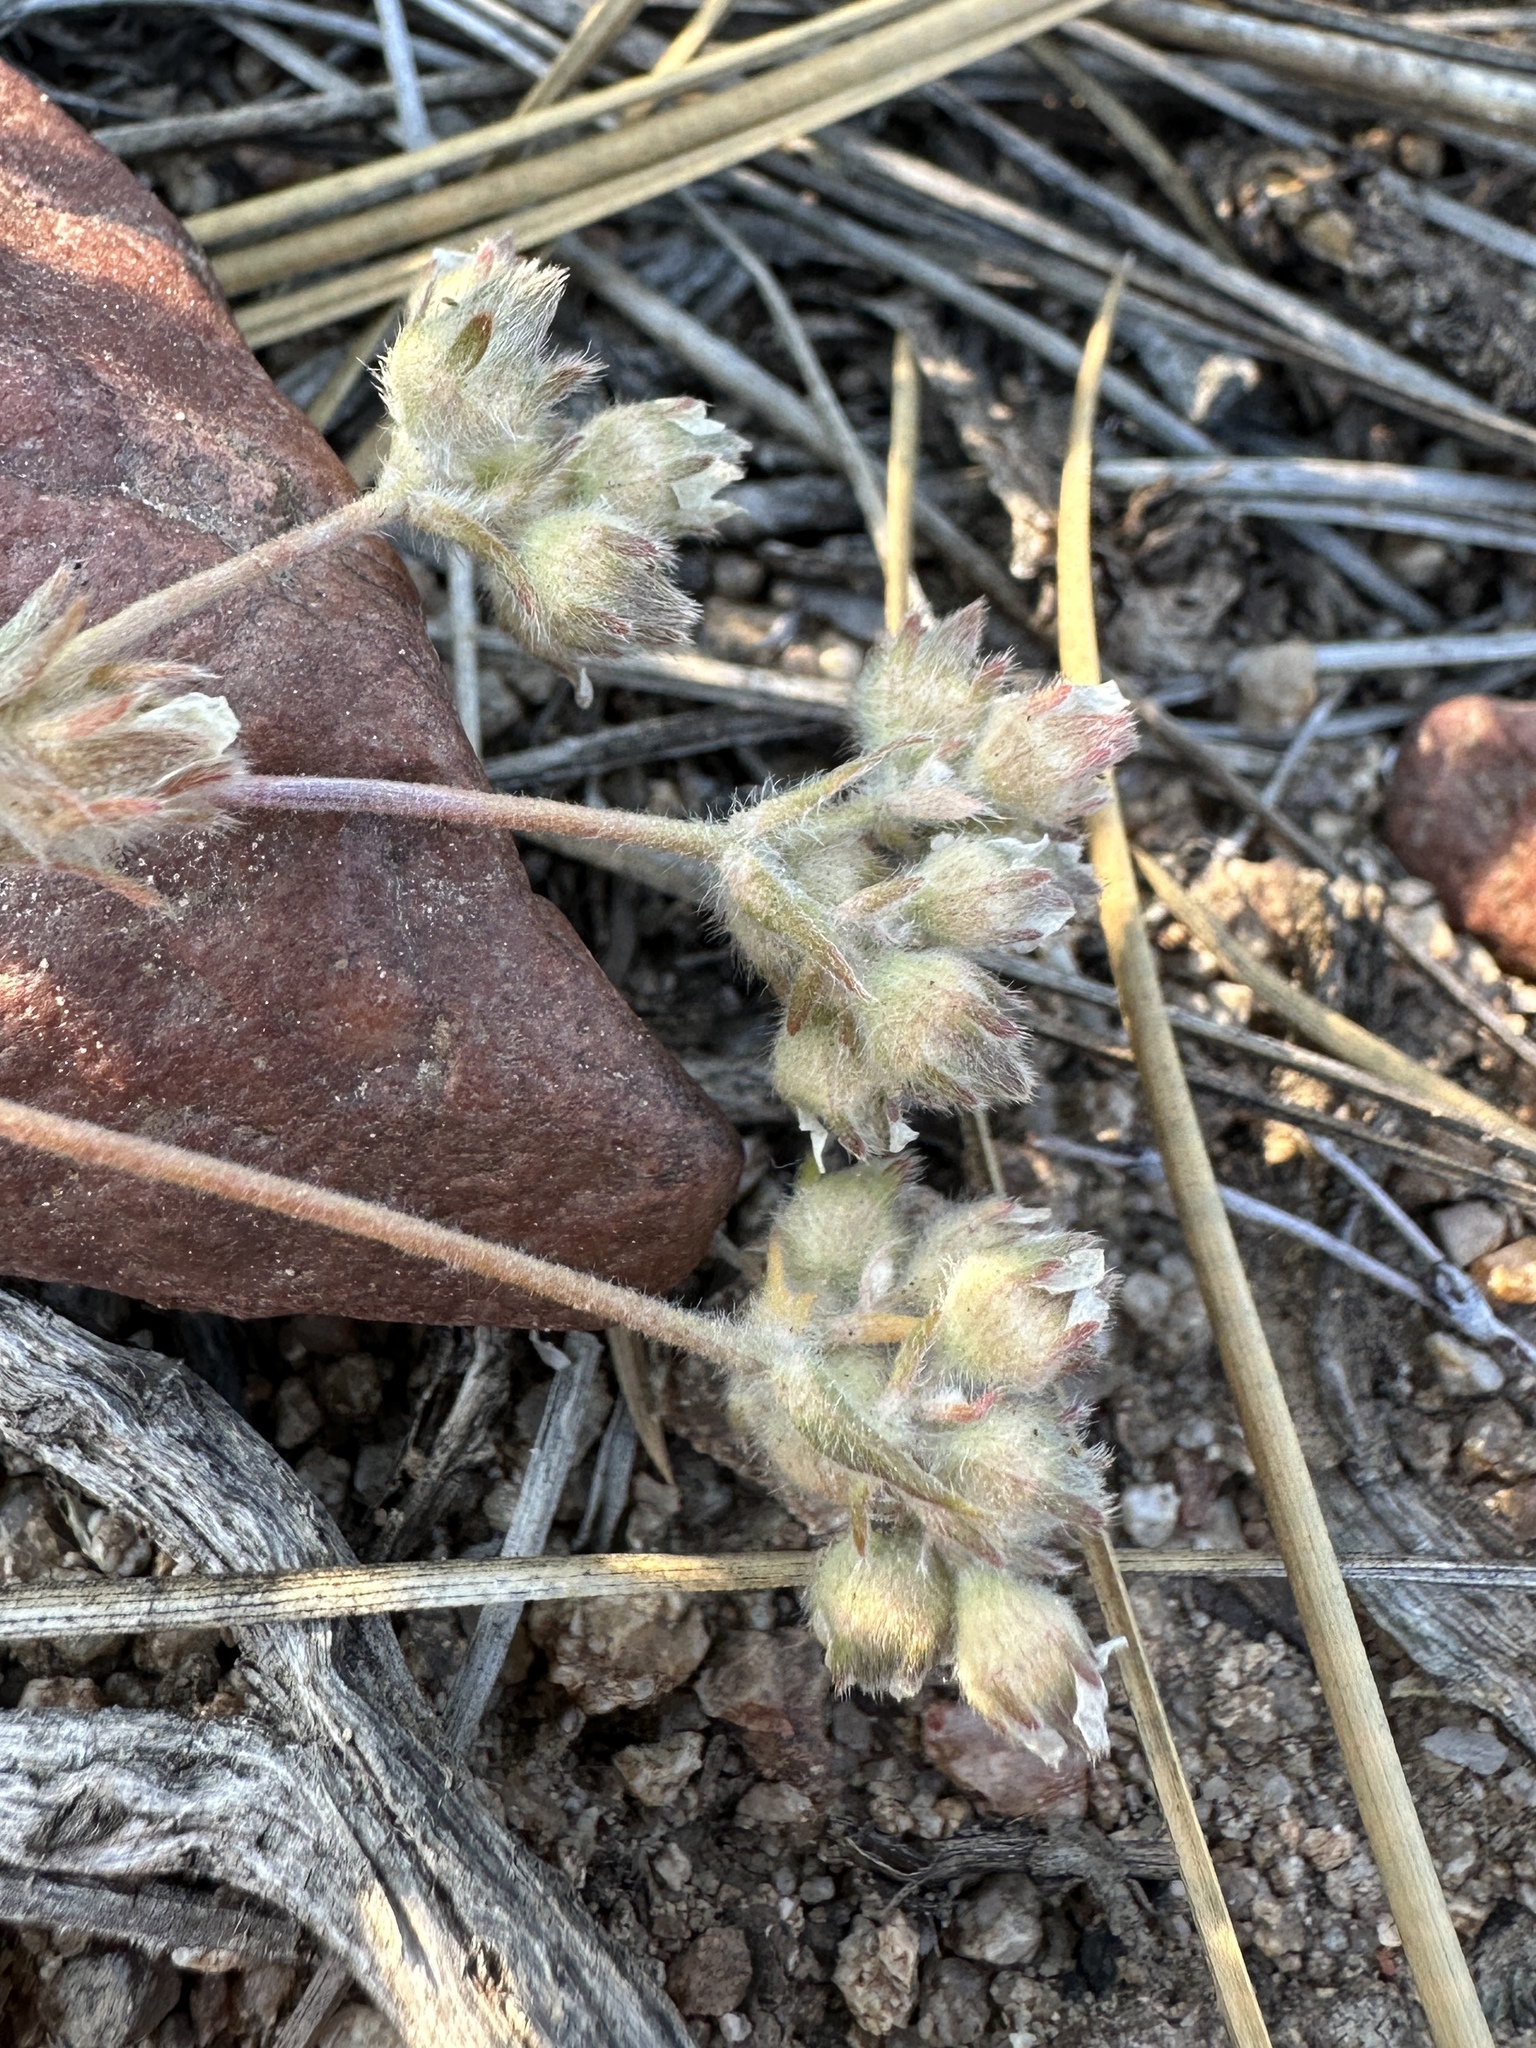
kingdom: Plantae
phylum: Tracheophyta
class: Magnoliopsida
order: Rosales
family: Rosaceae
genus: Potentilla
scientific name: Potentilla argyrocoma
